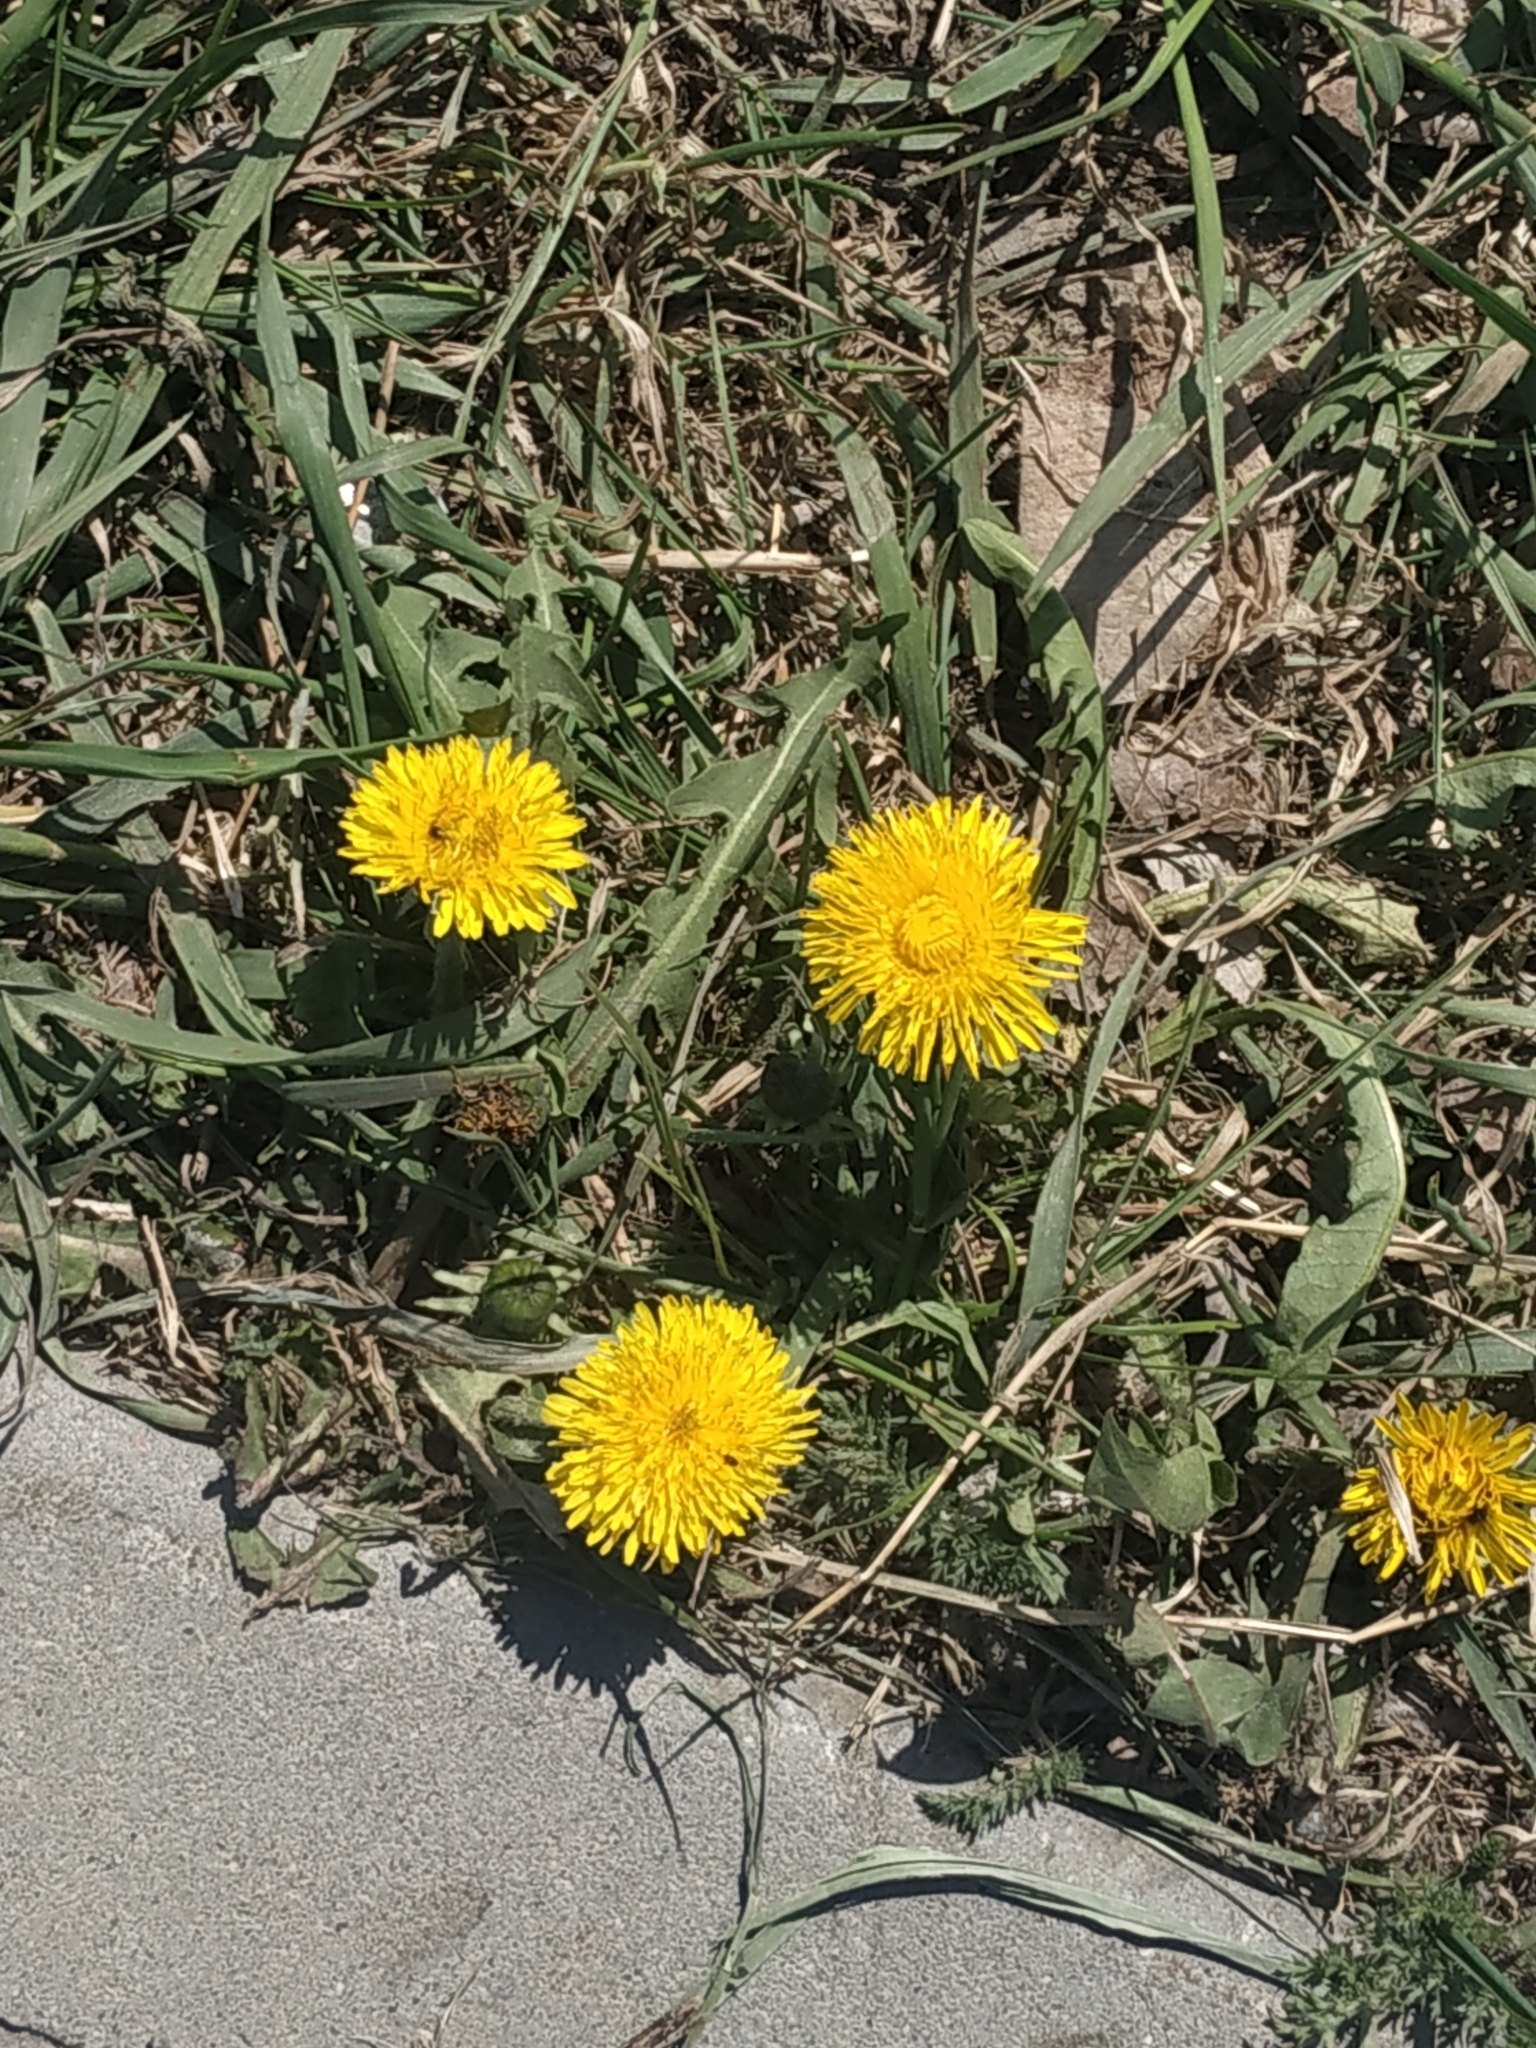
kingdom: Plantae
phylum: Tracheophyta
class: Magnoliopsida
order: Asterales
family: Asteraceae
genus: Taraxacum
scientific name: Taraxacum officinale
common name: Common dandelion
